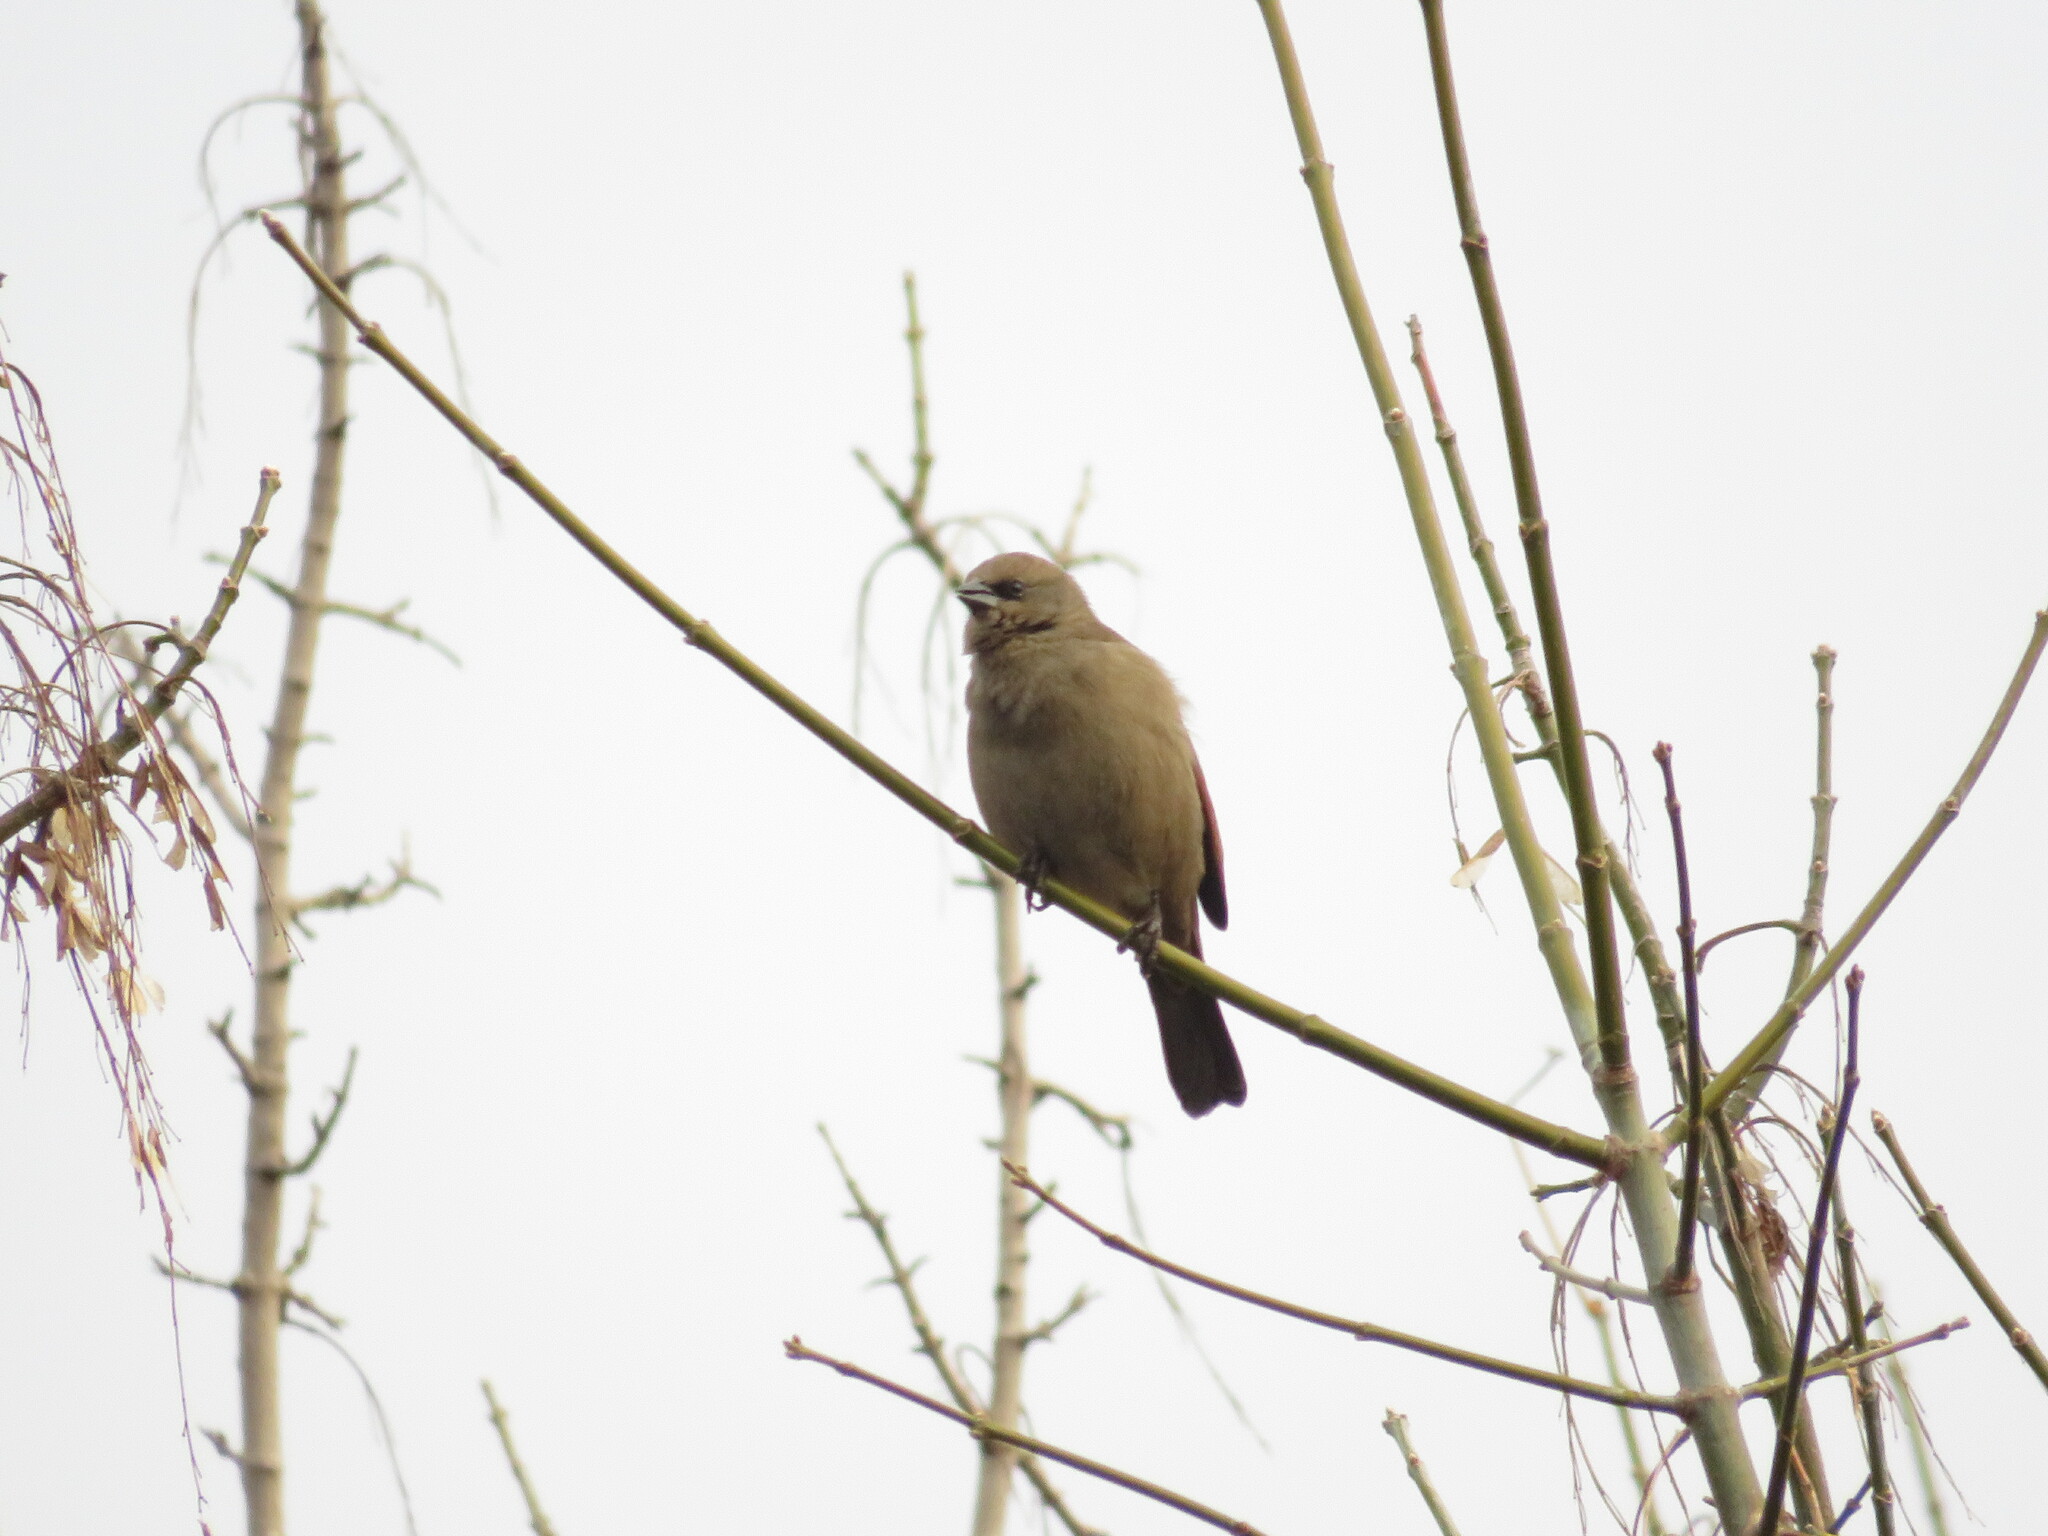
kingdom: Animalia
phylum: Chordata
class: Aves
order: Passeriformes
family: Icteridae
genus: Agelaioides
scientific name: Agelaioides badius
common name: Baywing
